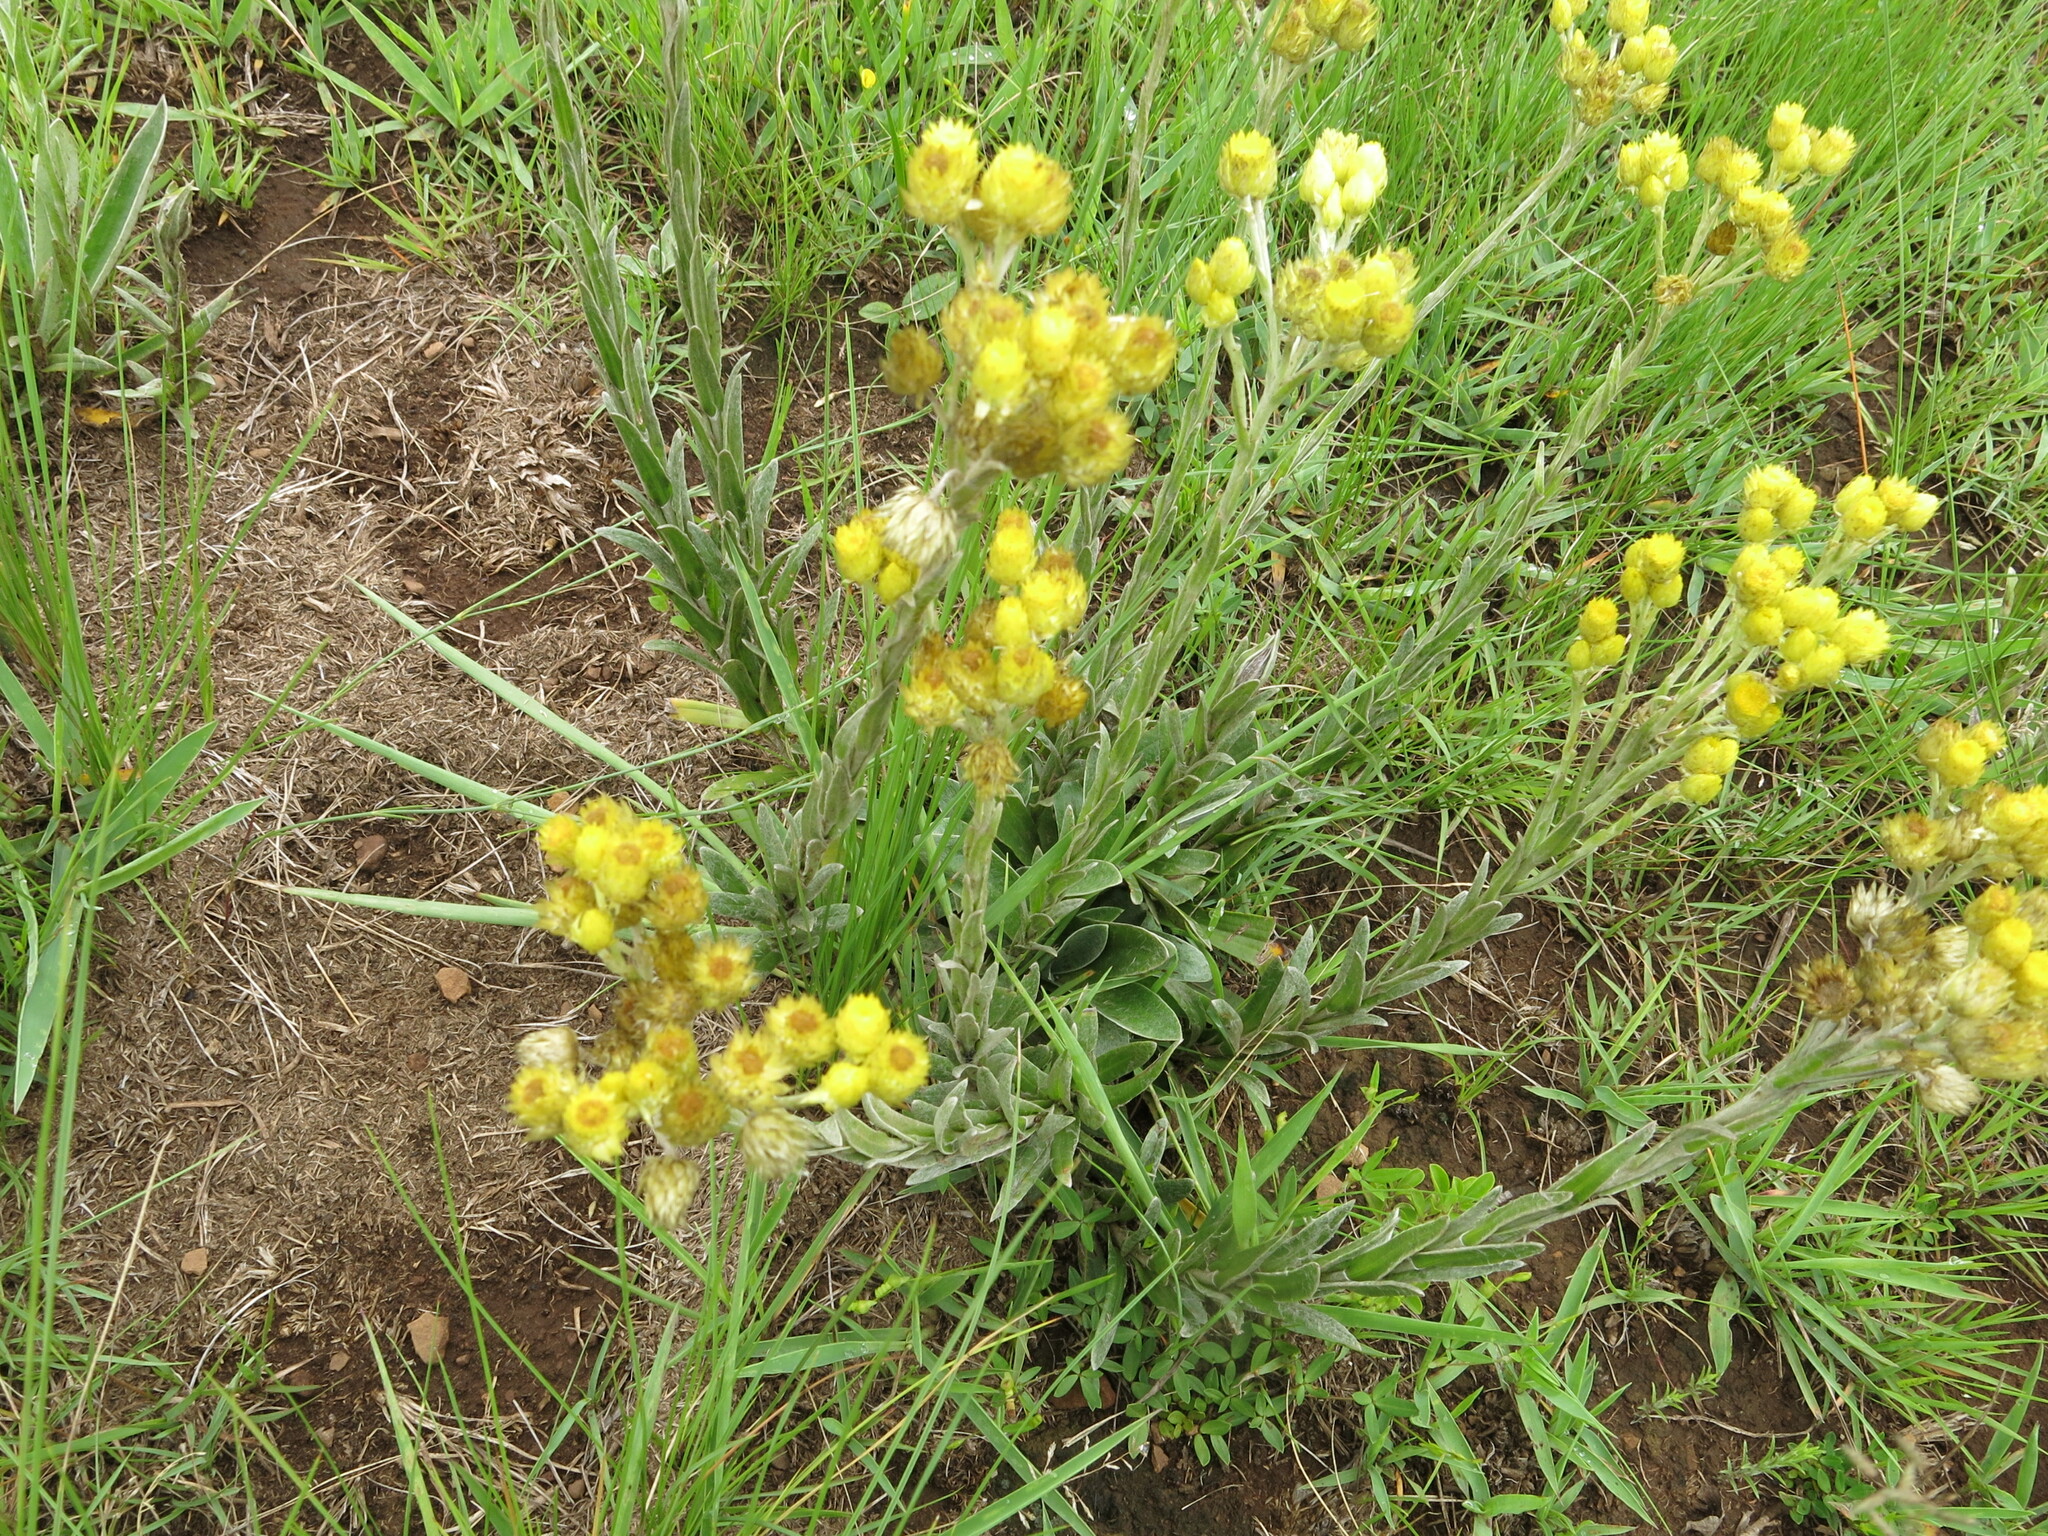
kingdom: Plantae
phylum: Tracheophyta
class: Magnoliopsida
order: Asterales
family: Asteraceae
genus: Helichrysum
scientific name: Helichrysum mixtum
